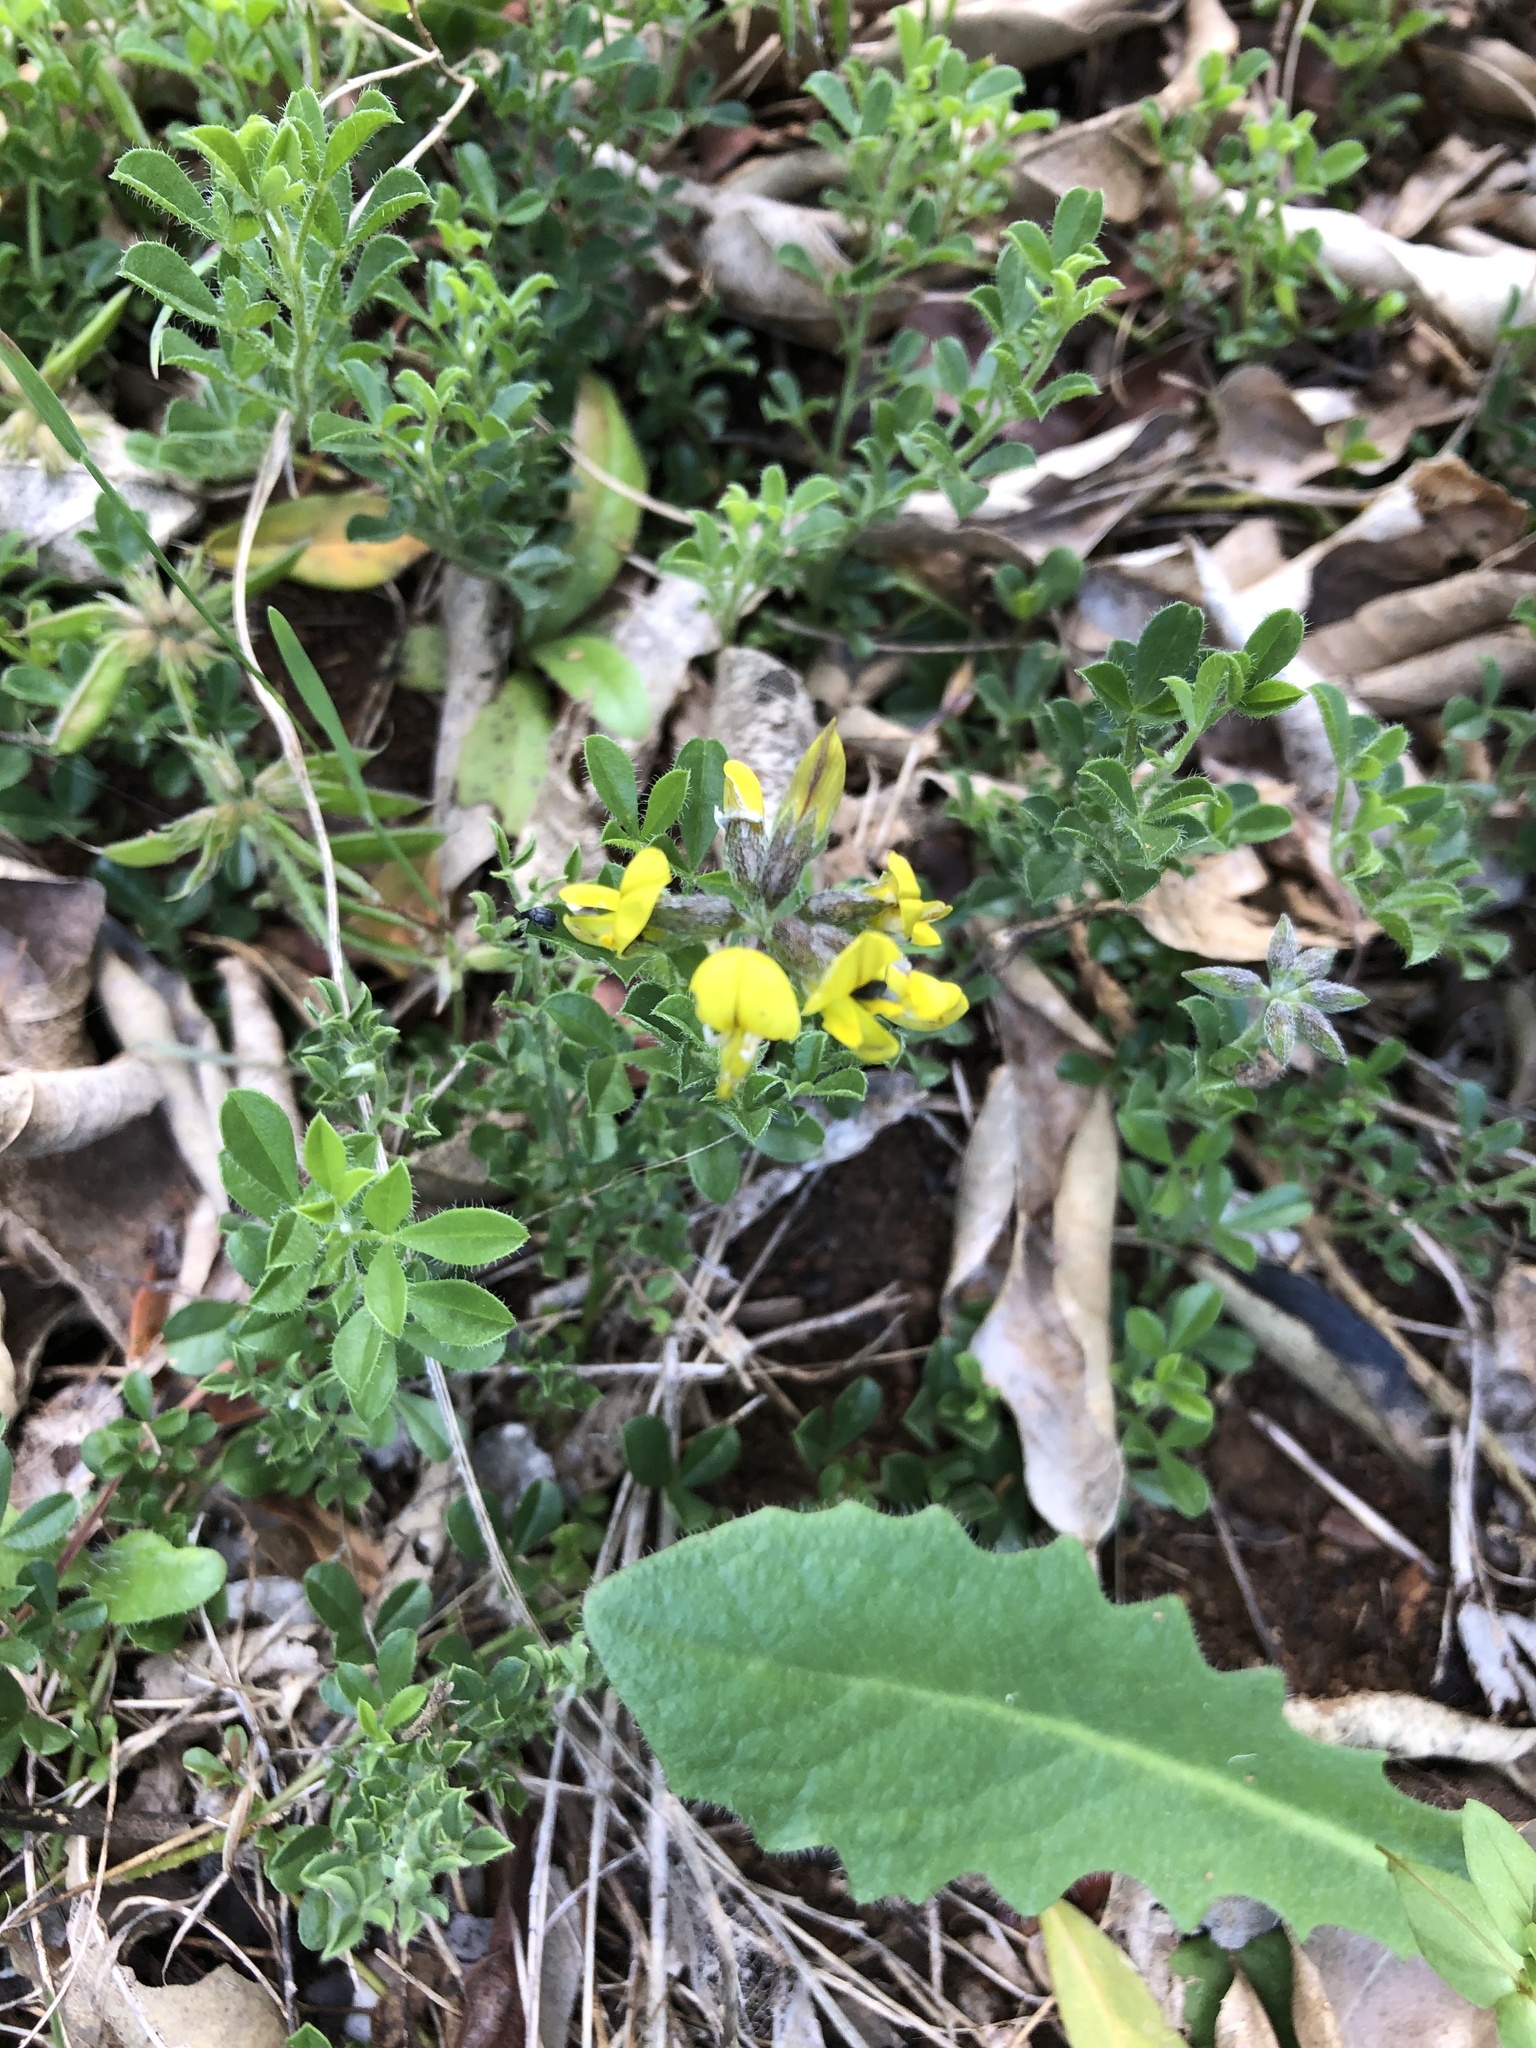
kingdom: Plantae
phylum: Tracheophyta
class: Magnoliopsida
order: Fabales
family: Fabaceae
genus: Lotononis
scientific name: Lotononis umbellata
